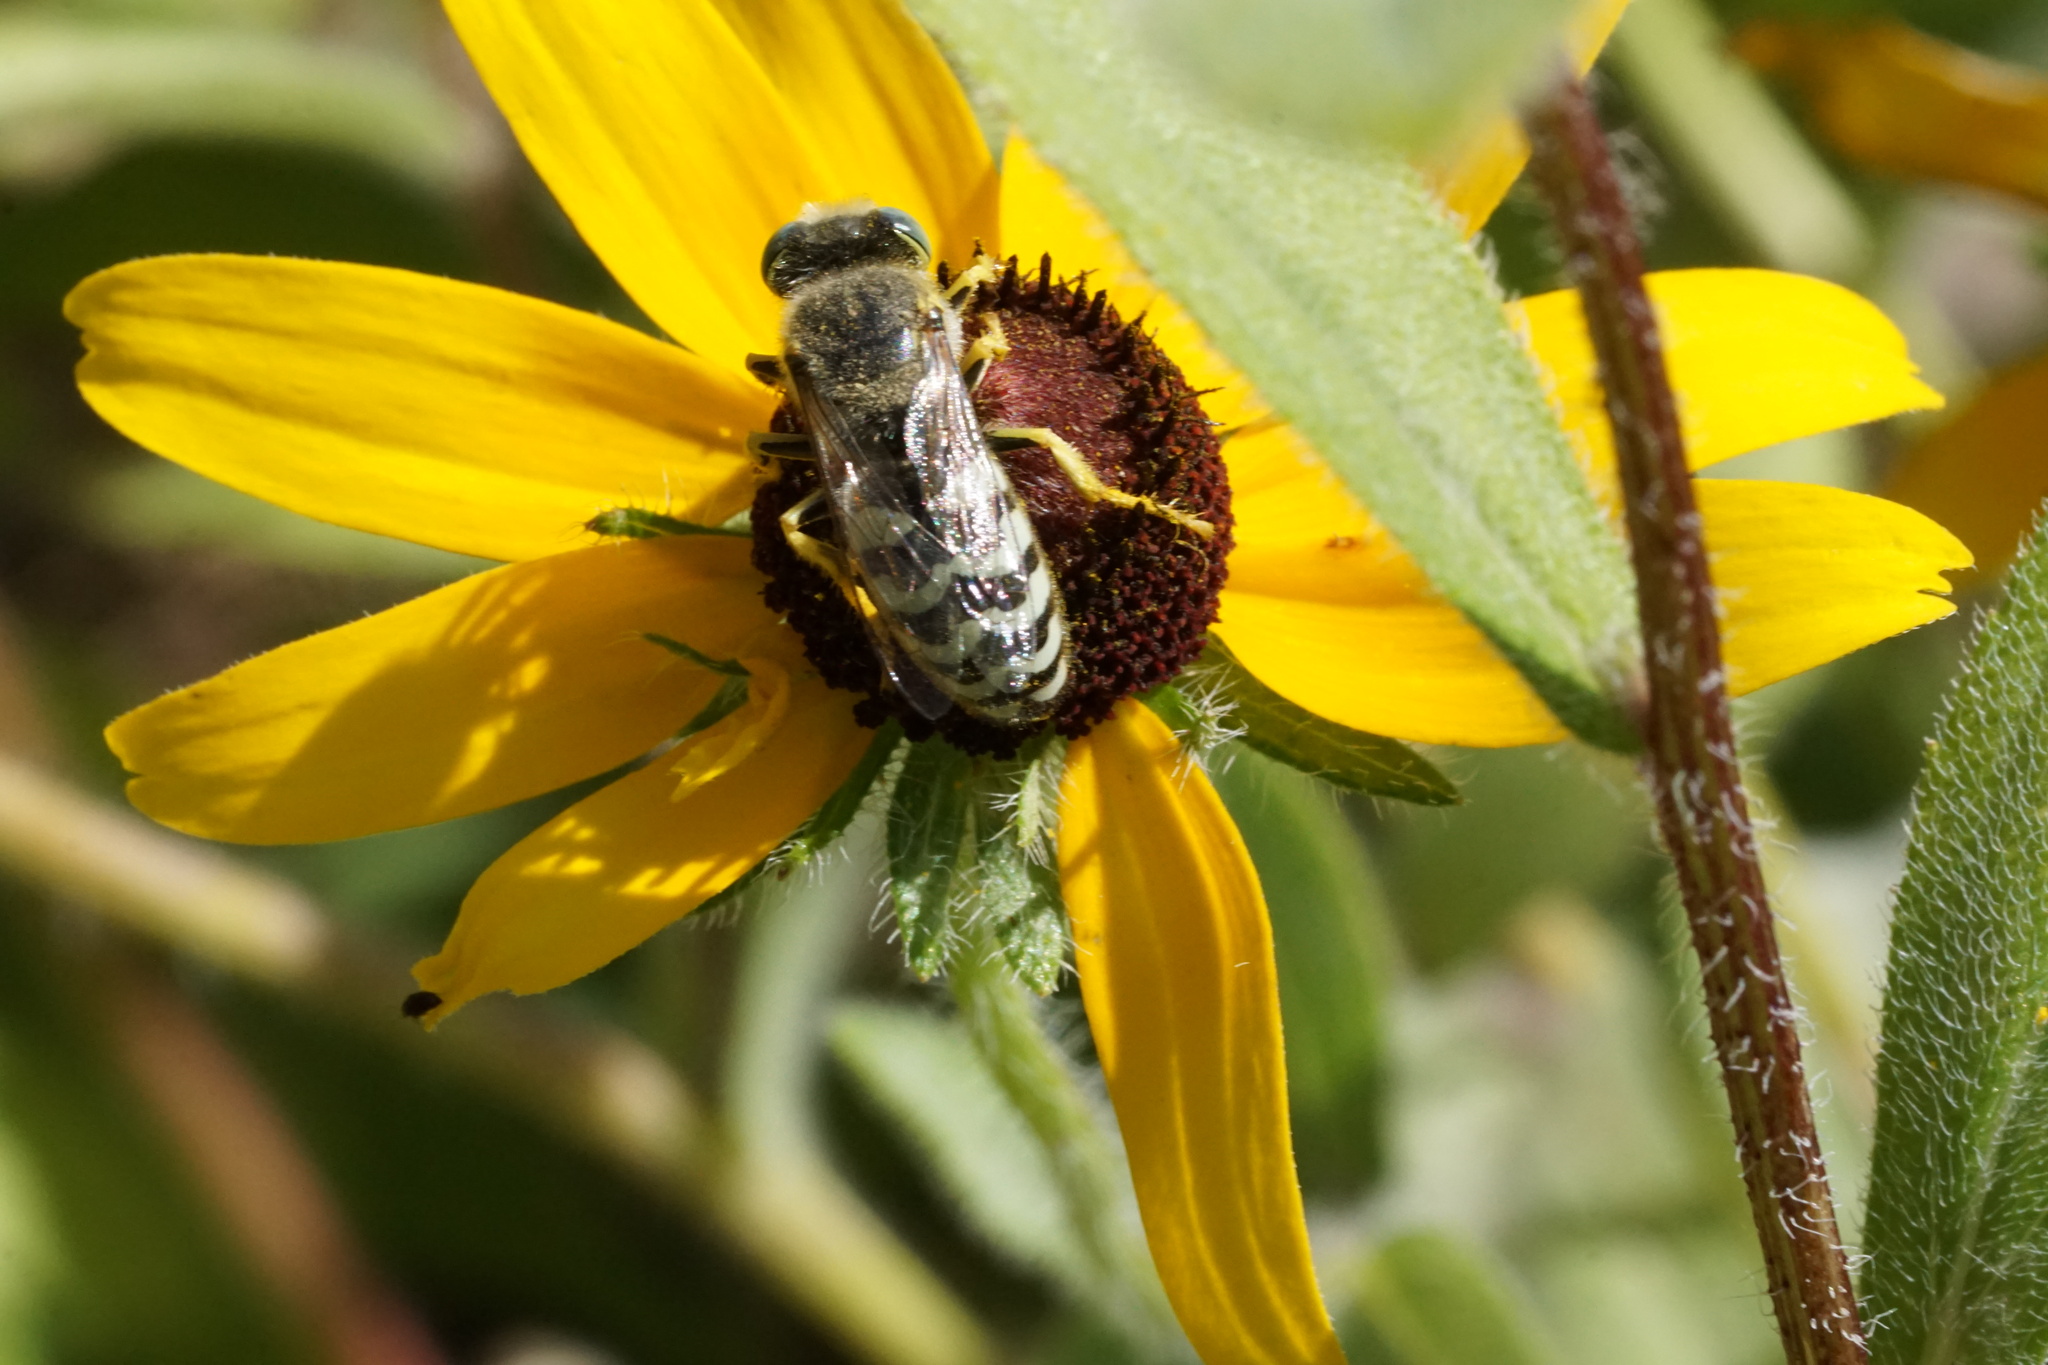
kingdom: Animalia
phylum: Arthropoda
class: Insecta
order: Hymenoptera
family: Crabronidae
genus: Bembix
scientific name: Bembix americana
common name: American sand wasp
